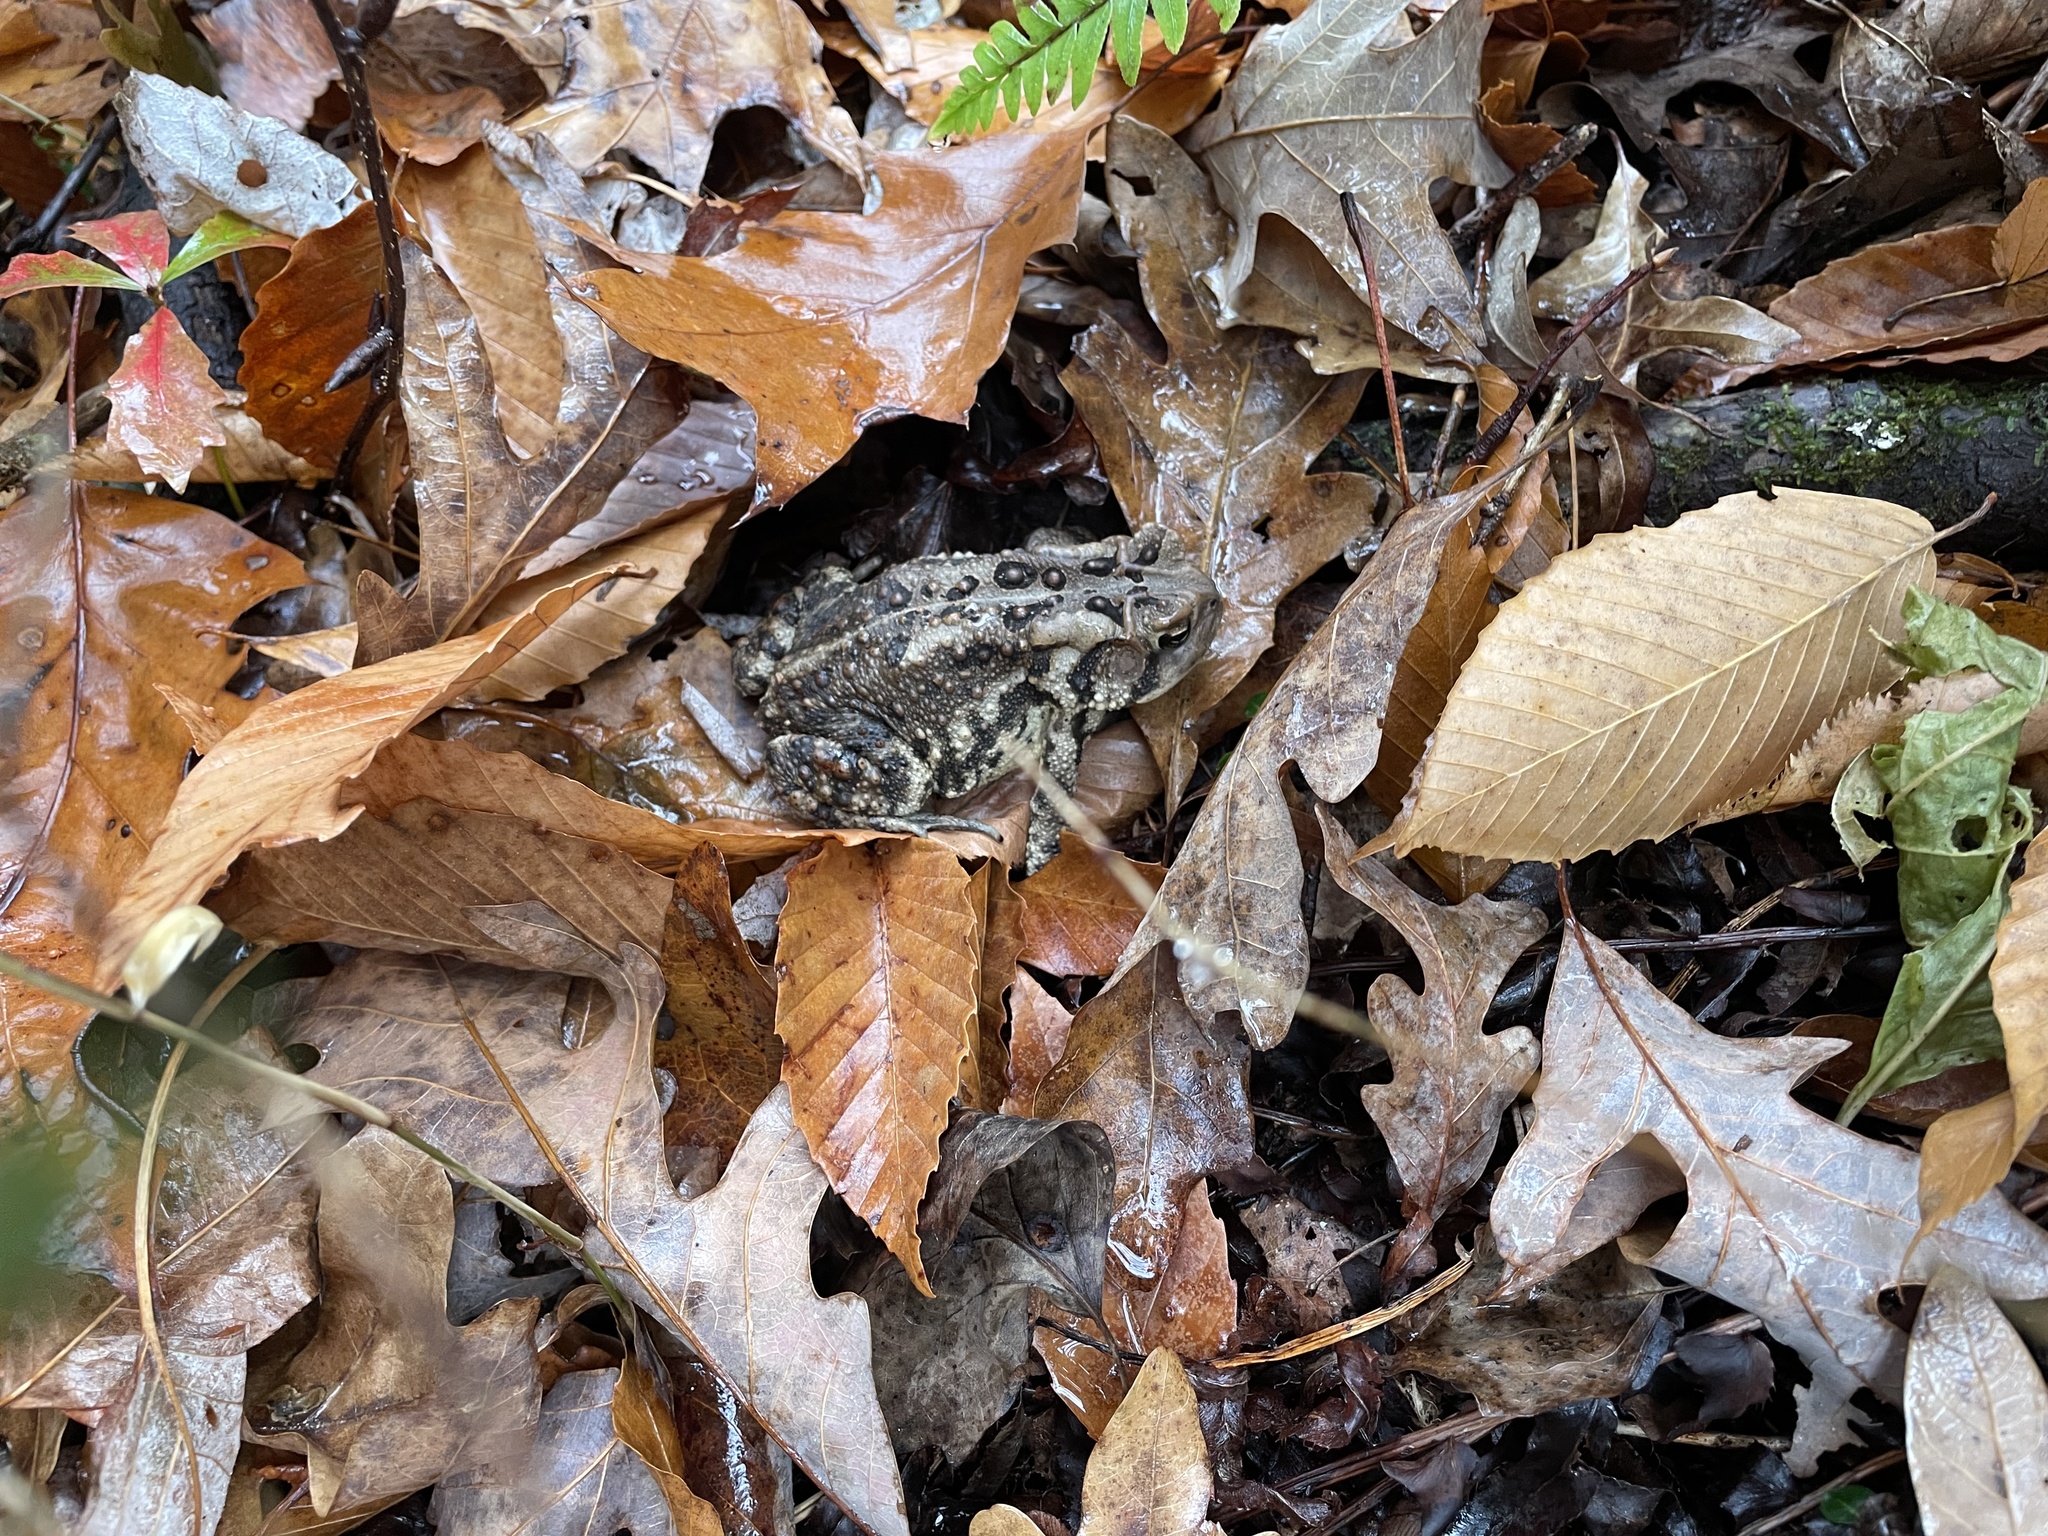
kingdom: Animalia
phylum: Chordata
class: Amphibia
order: Anura
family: Bufonidae
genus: Anaxyrus
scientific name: Anaxyrus americanus
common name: American toad
